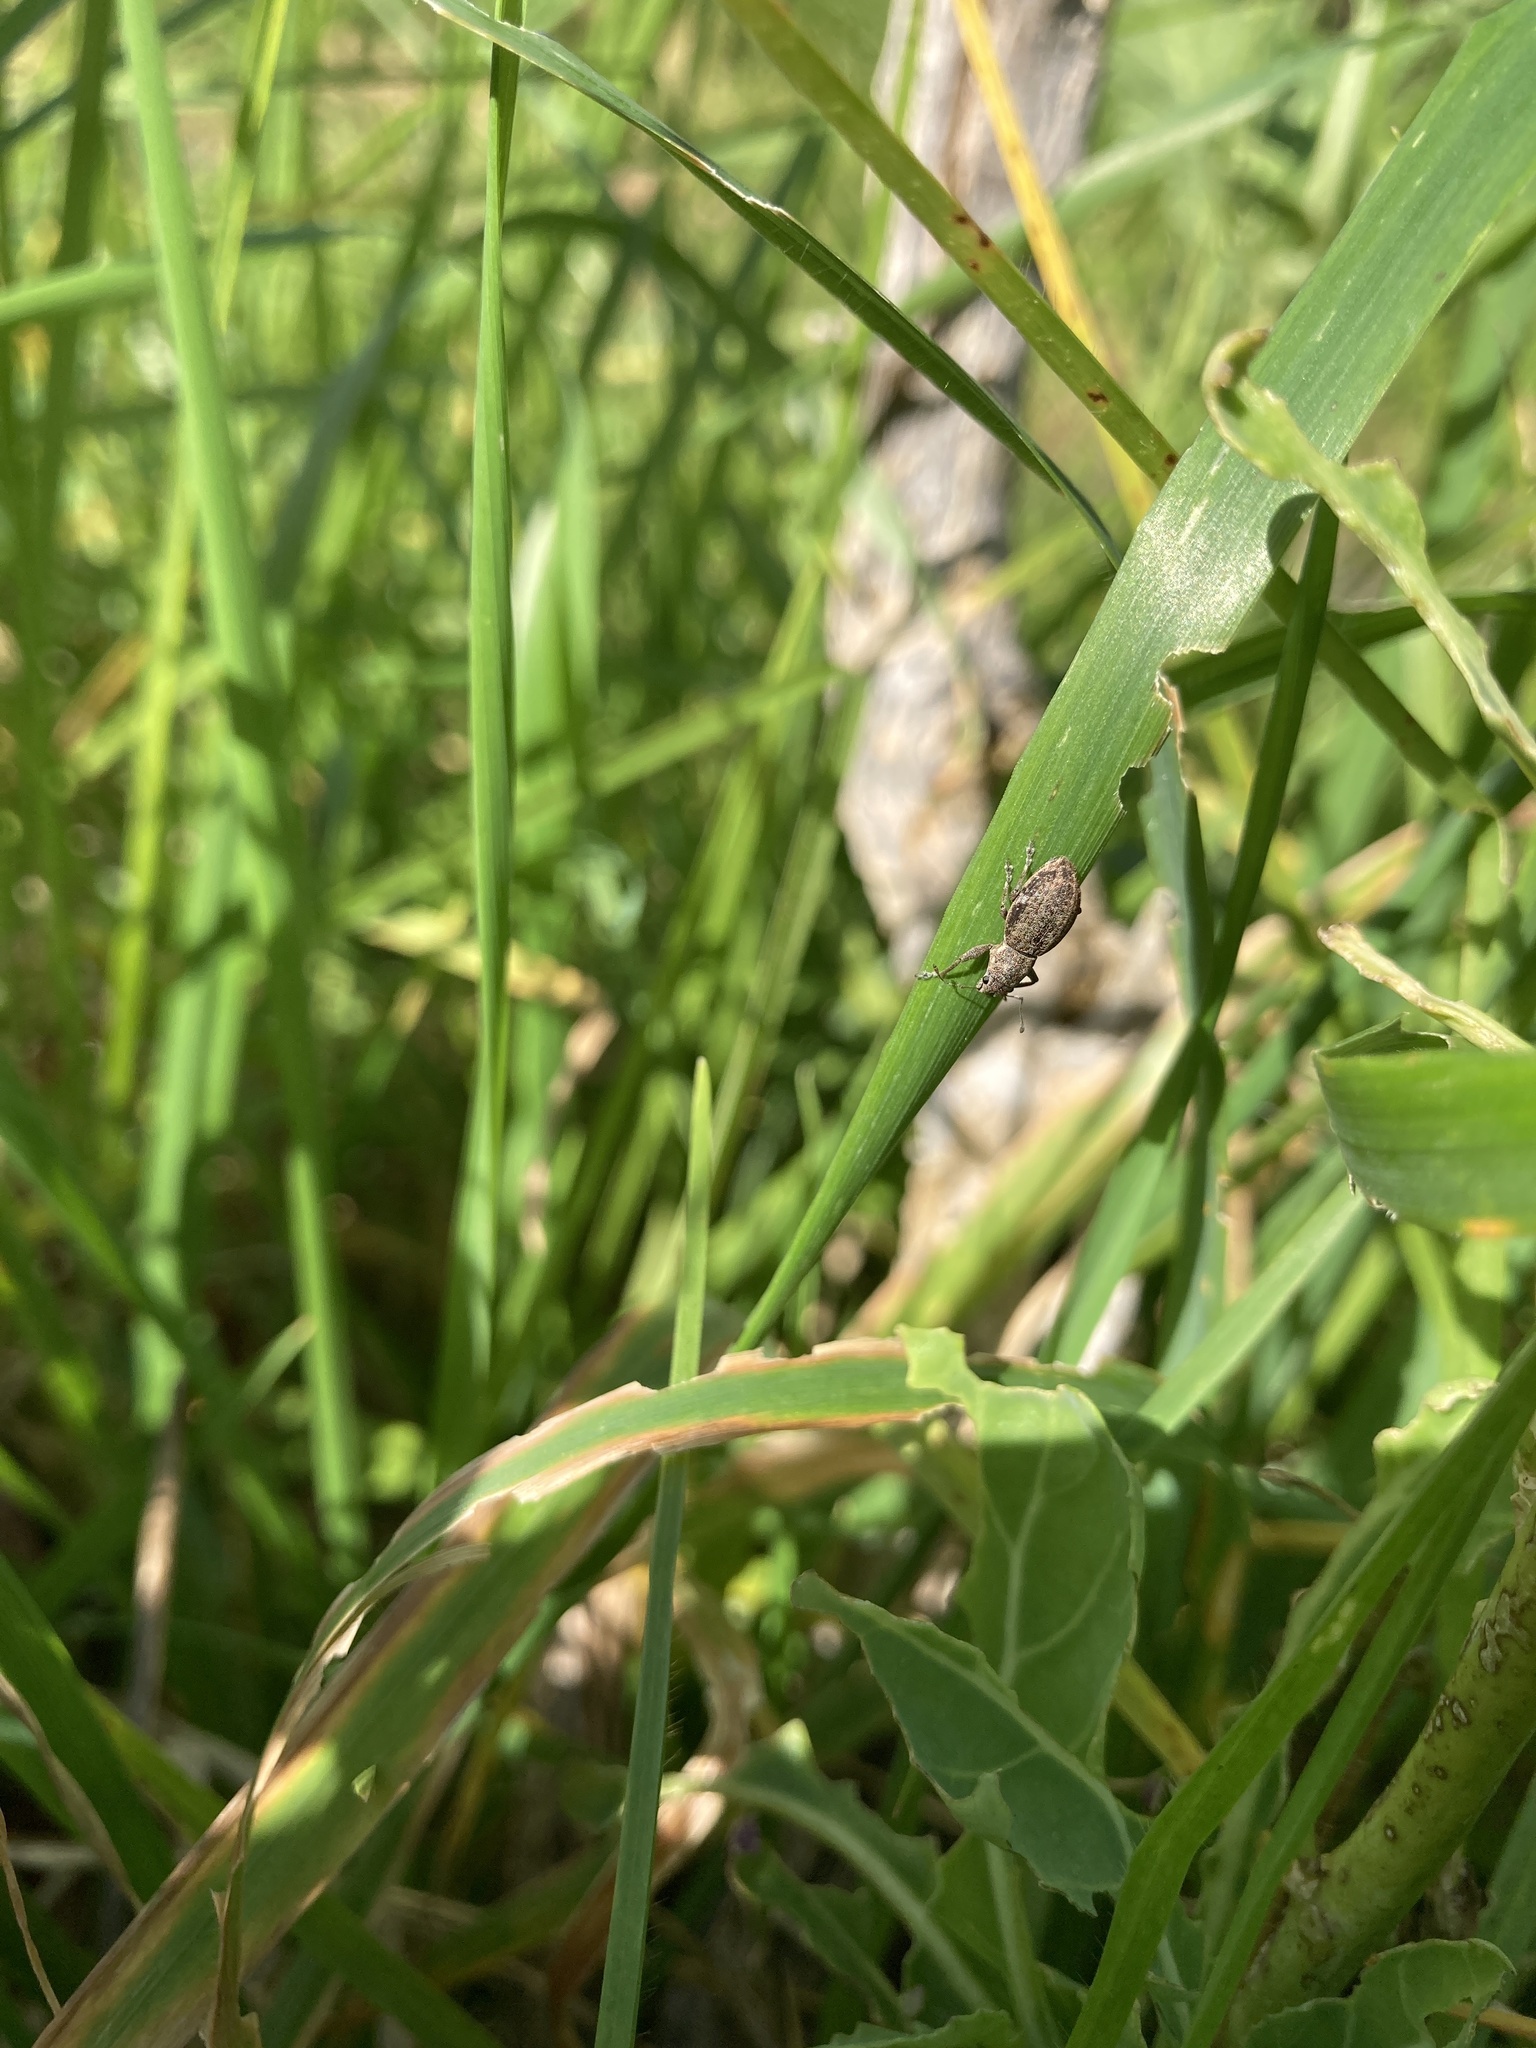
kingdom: Animalia
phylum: Arthropoda
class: Insecta
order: Coleoptera
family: Curculionidae
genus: Naupactus
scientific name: Naupactus cervinus
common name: Fuller rose beetle
